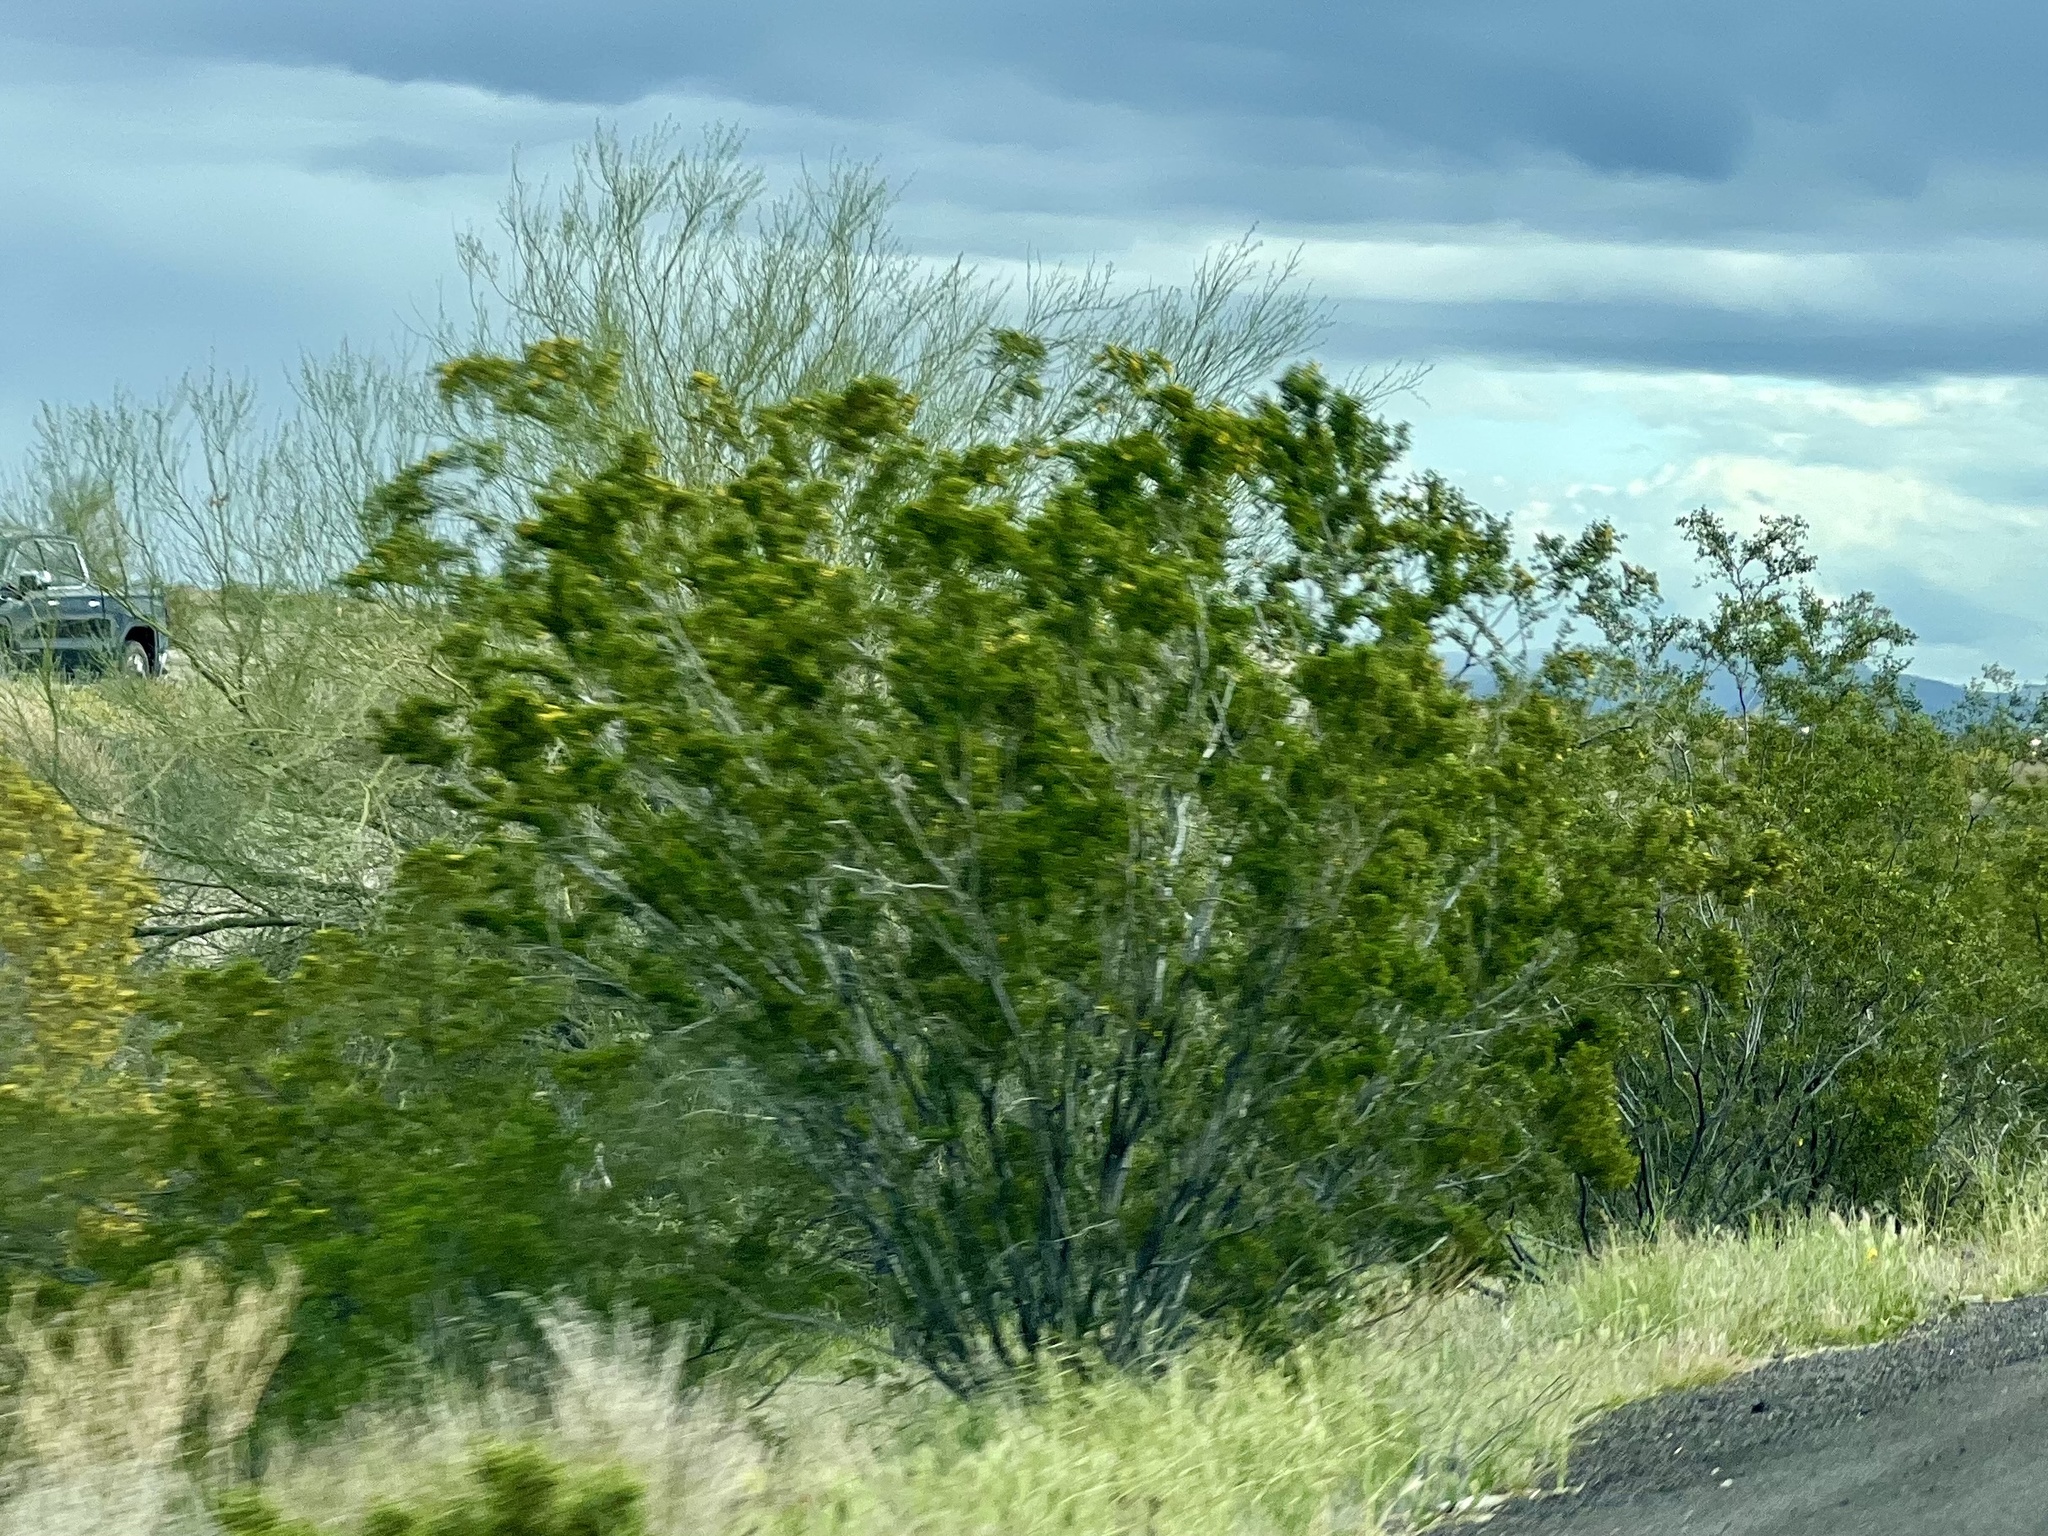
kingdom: Plantae
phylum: Tracheophyta
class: Magnoliopsida
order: Zygophyllales
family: Zygophyllaceae
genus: Larrea
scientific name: Larrea tridentata
